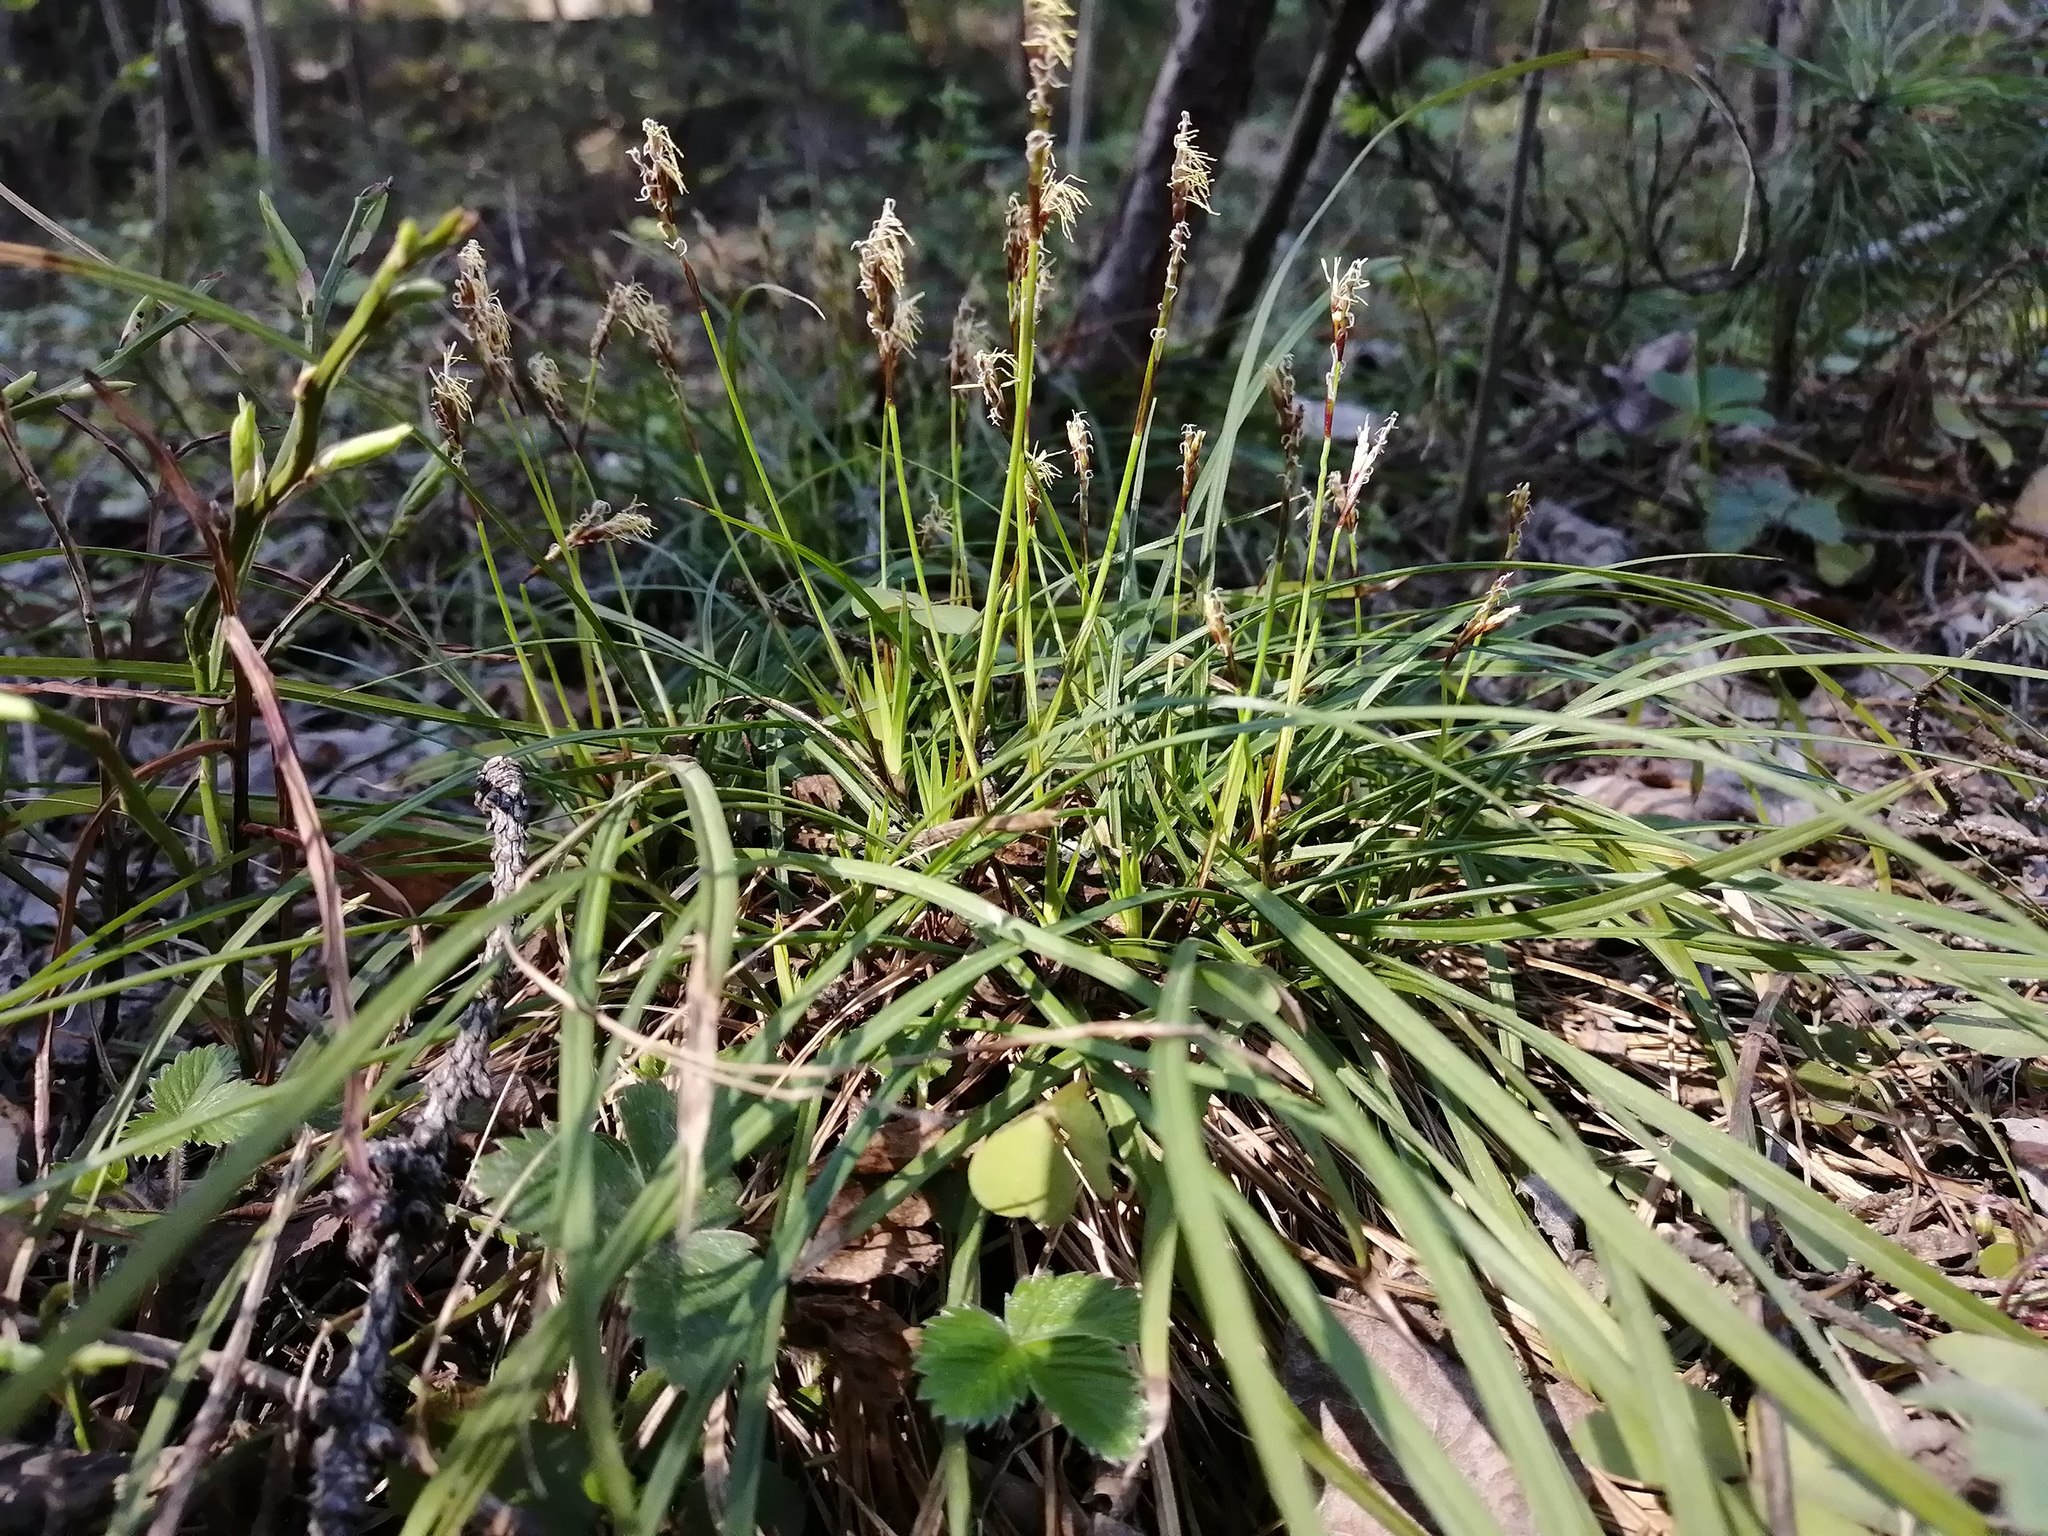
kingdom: Plantae
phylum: Tracheophyta
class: Liliopsida
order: Poales
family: Cyperaceae
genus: Carex
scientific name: Carex digitata
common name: Fingered sedge
